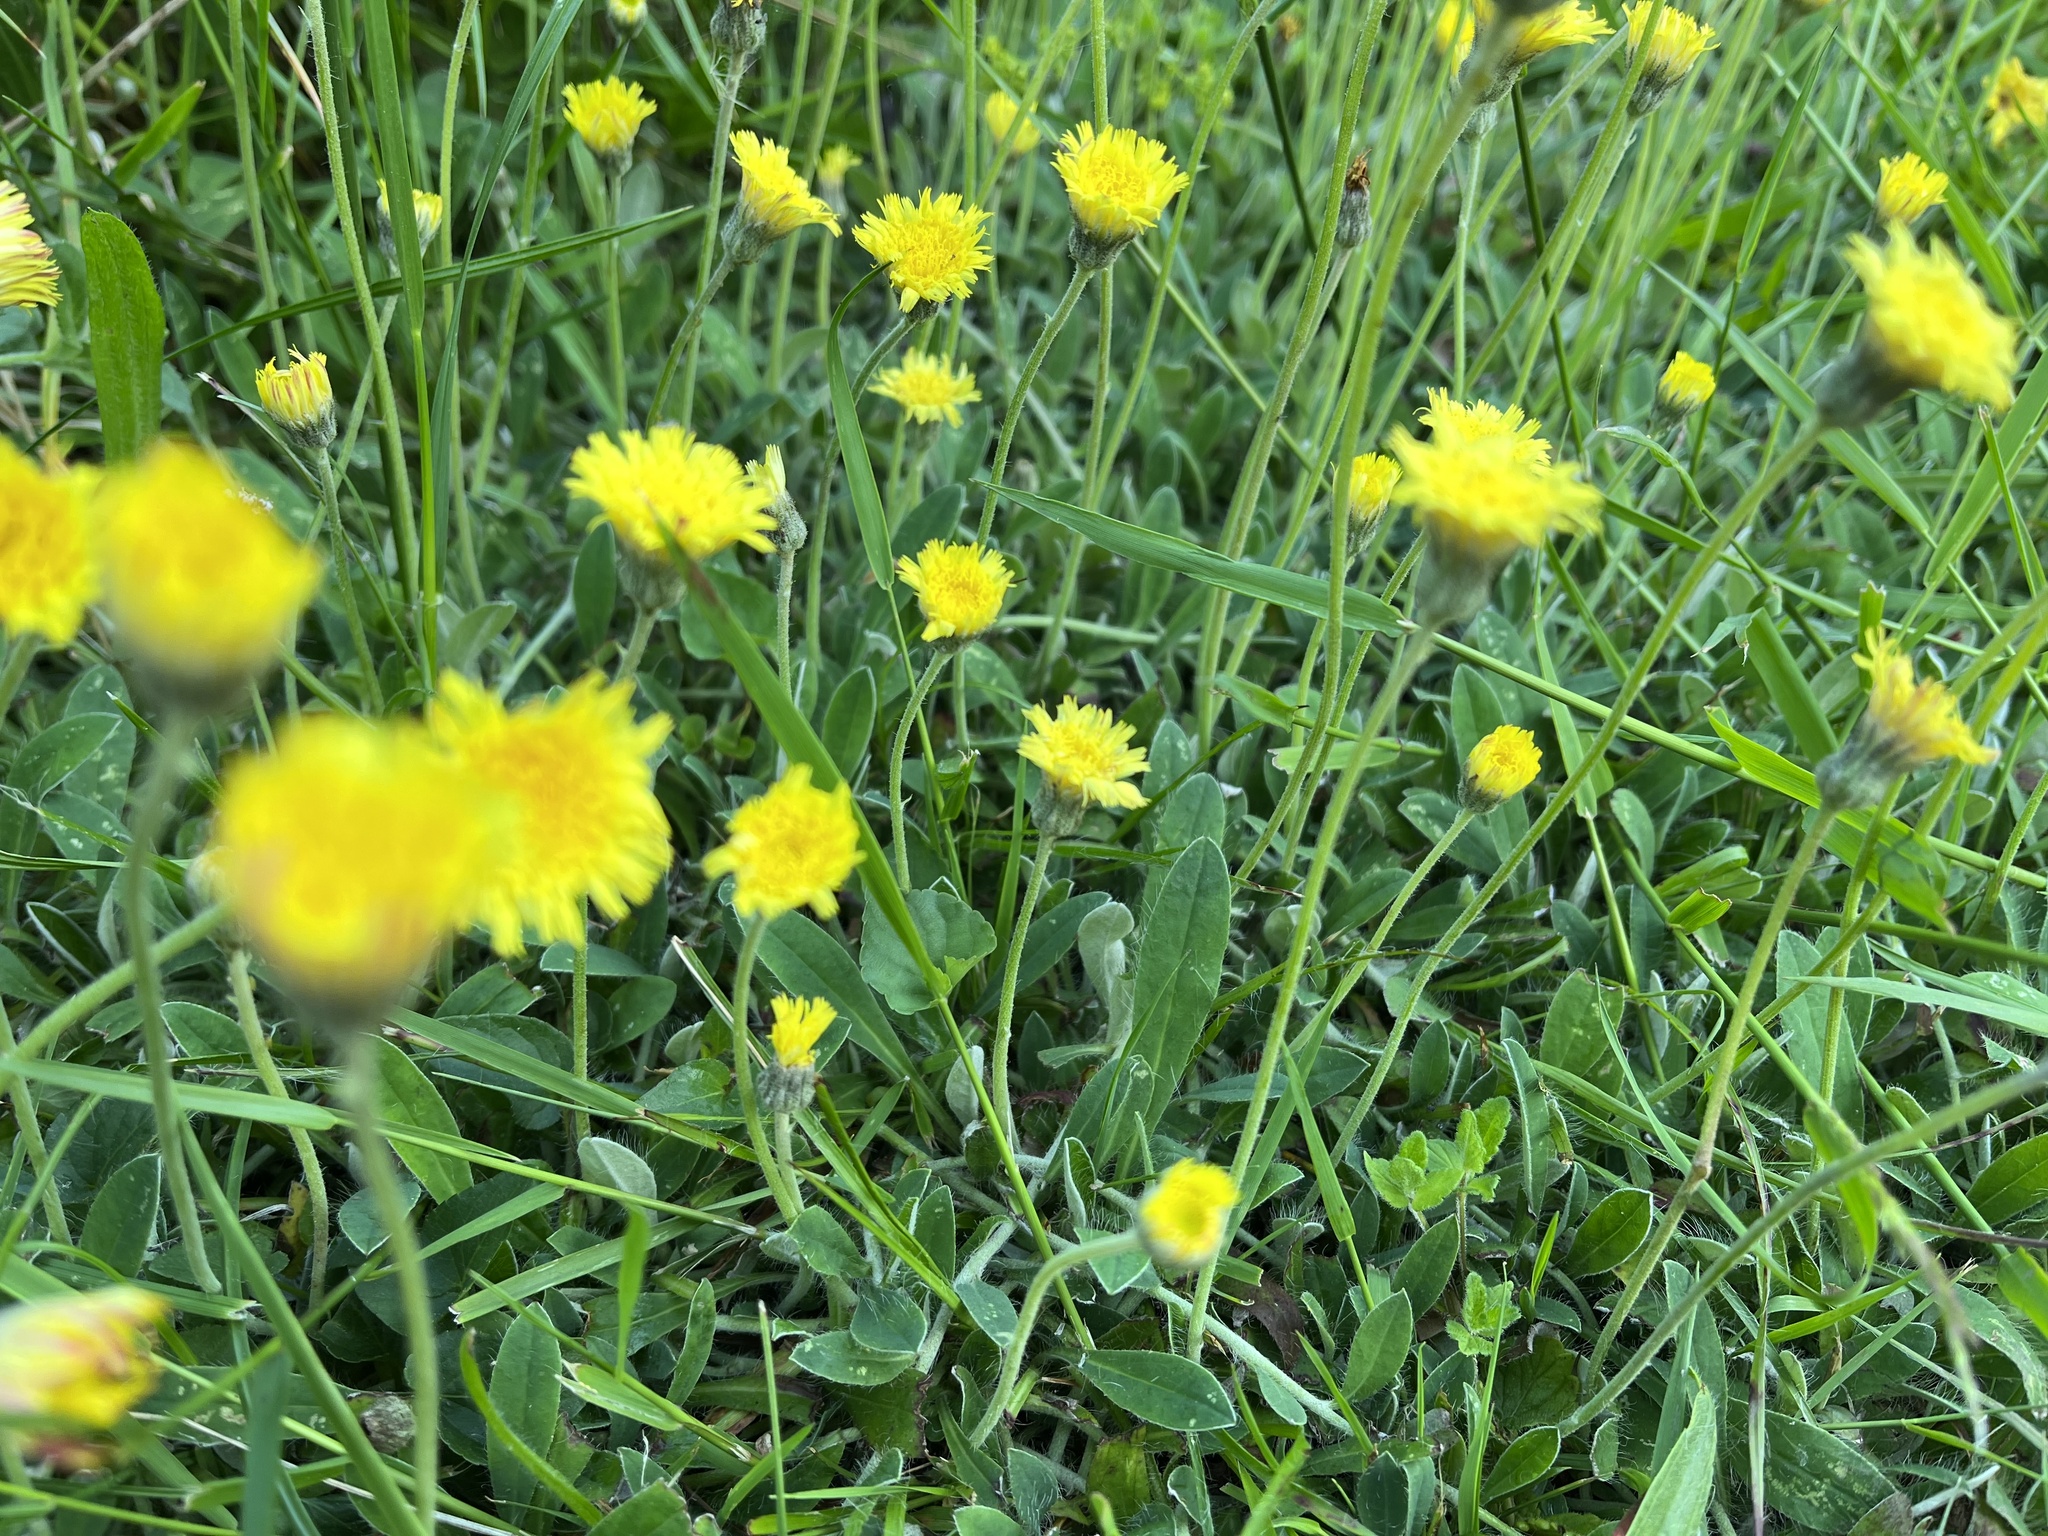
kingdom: Plantae
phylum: Tracheophyta
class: Magnoliopsida
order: Asterales
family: Asteraceae
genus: Pilosella
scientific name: Pilosella officinarum
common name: Mouse-ear hawkweed
